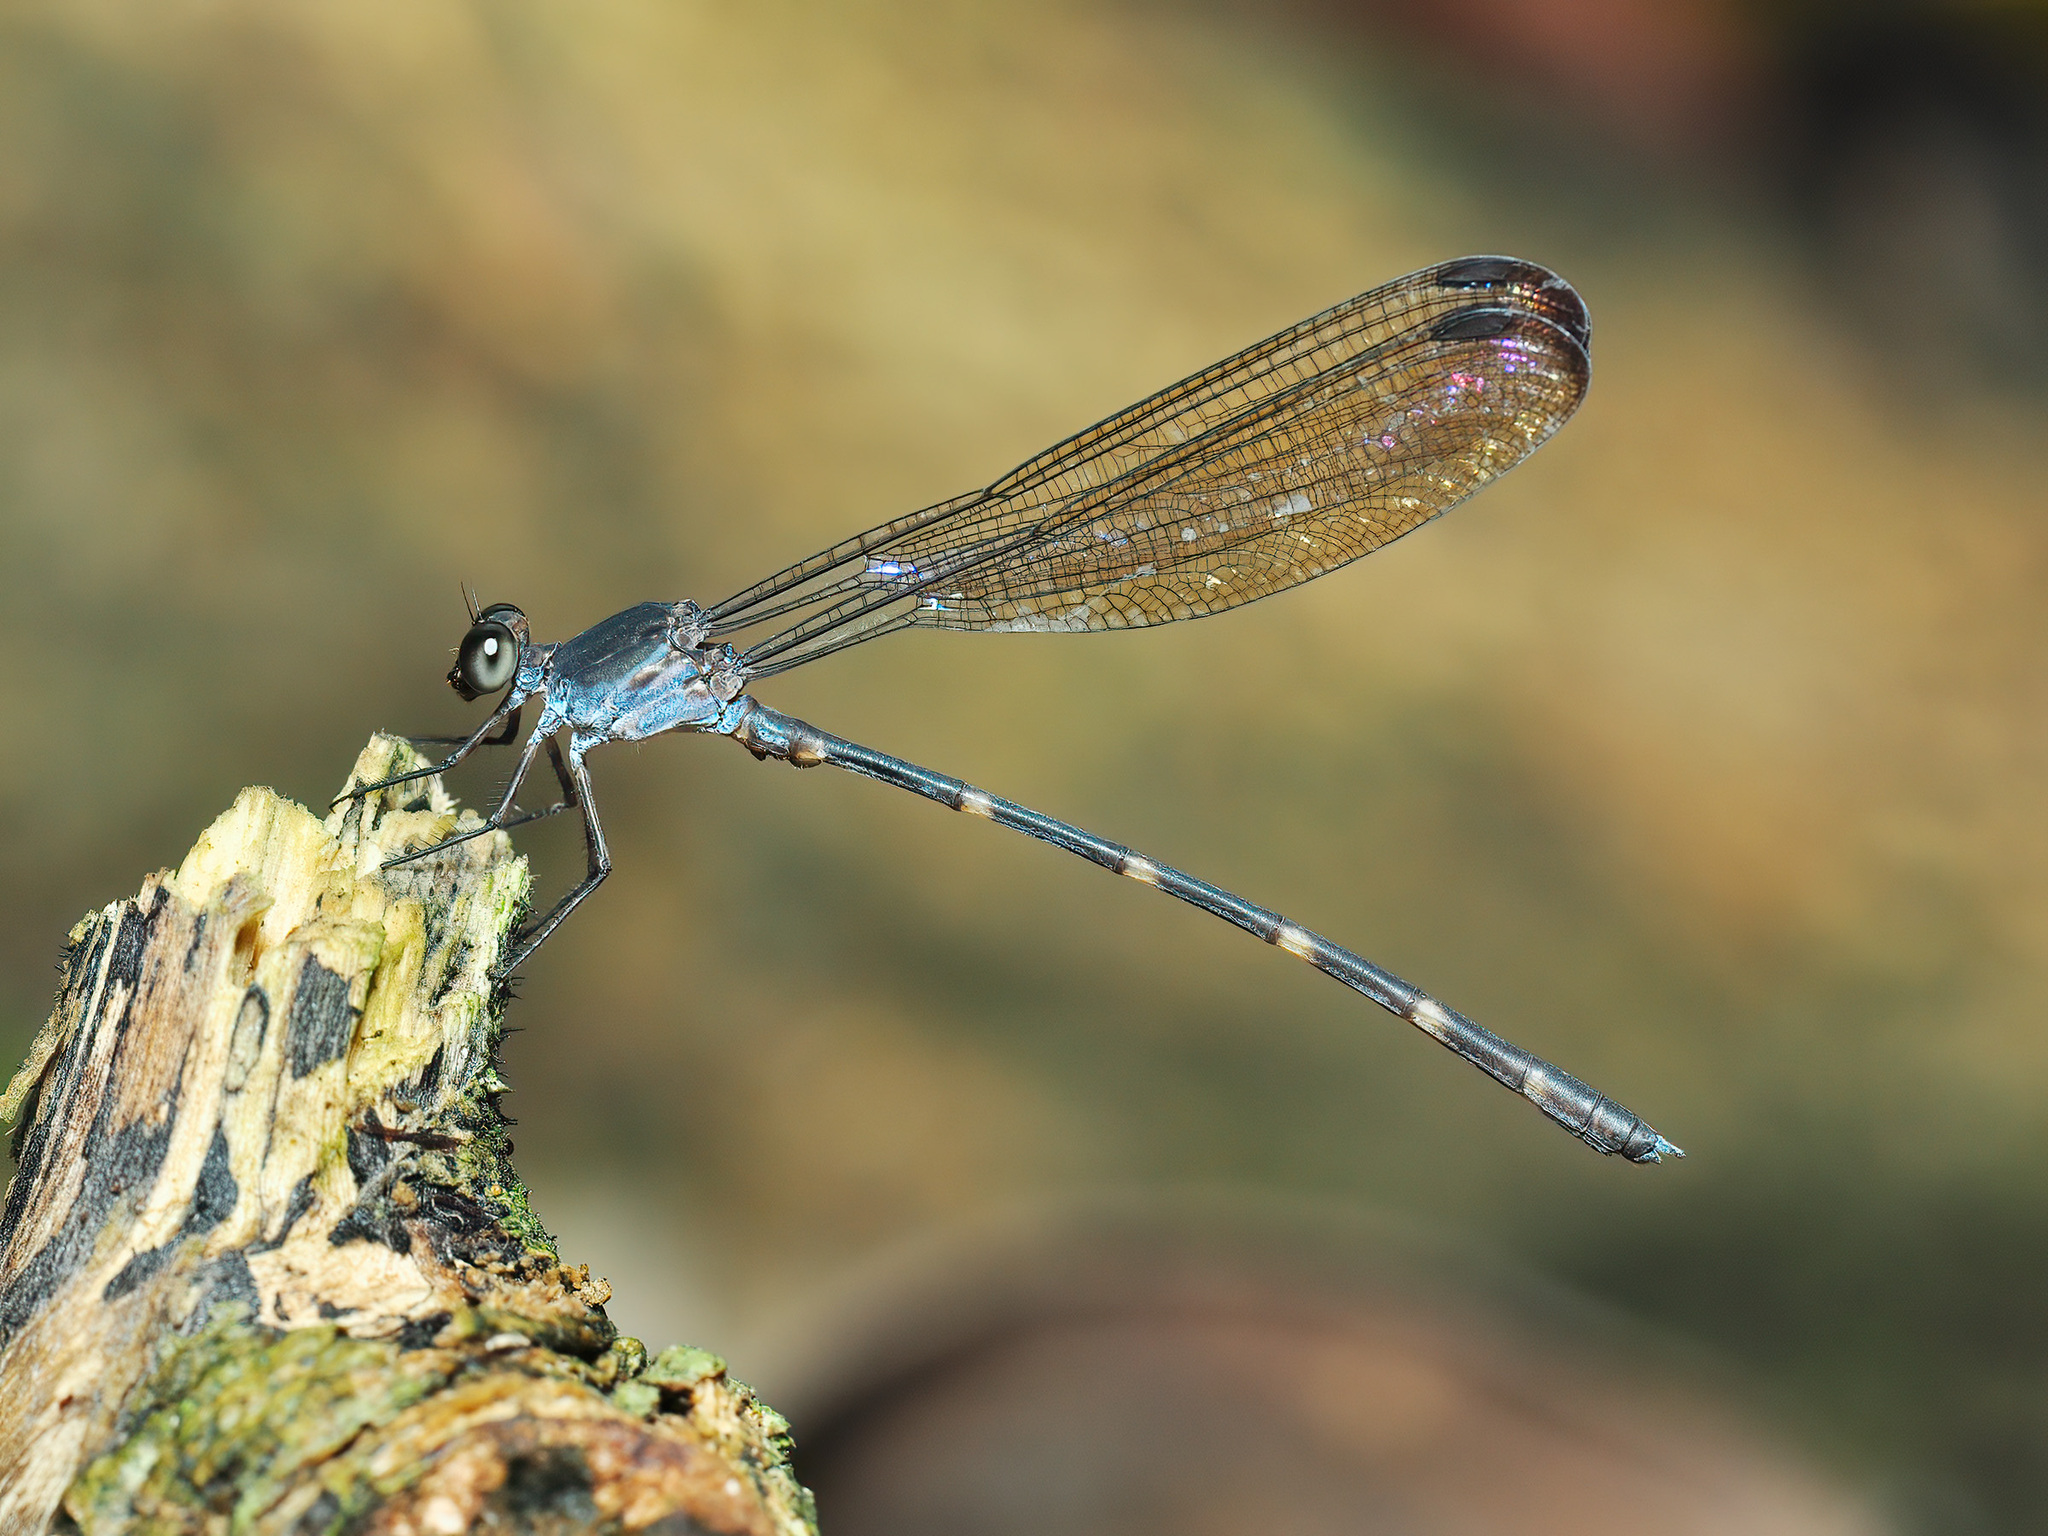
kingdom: Animalia
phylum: Arthropoda
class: Insecta
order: Odonata
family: Devadattidae
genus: Devadatta
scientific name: Devadatta argyoides
